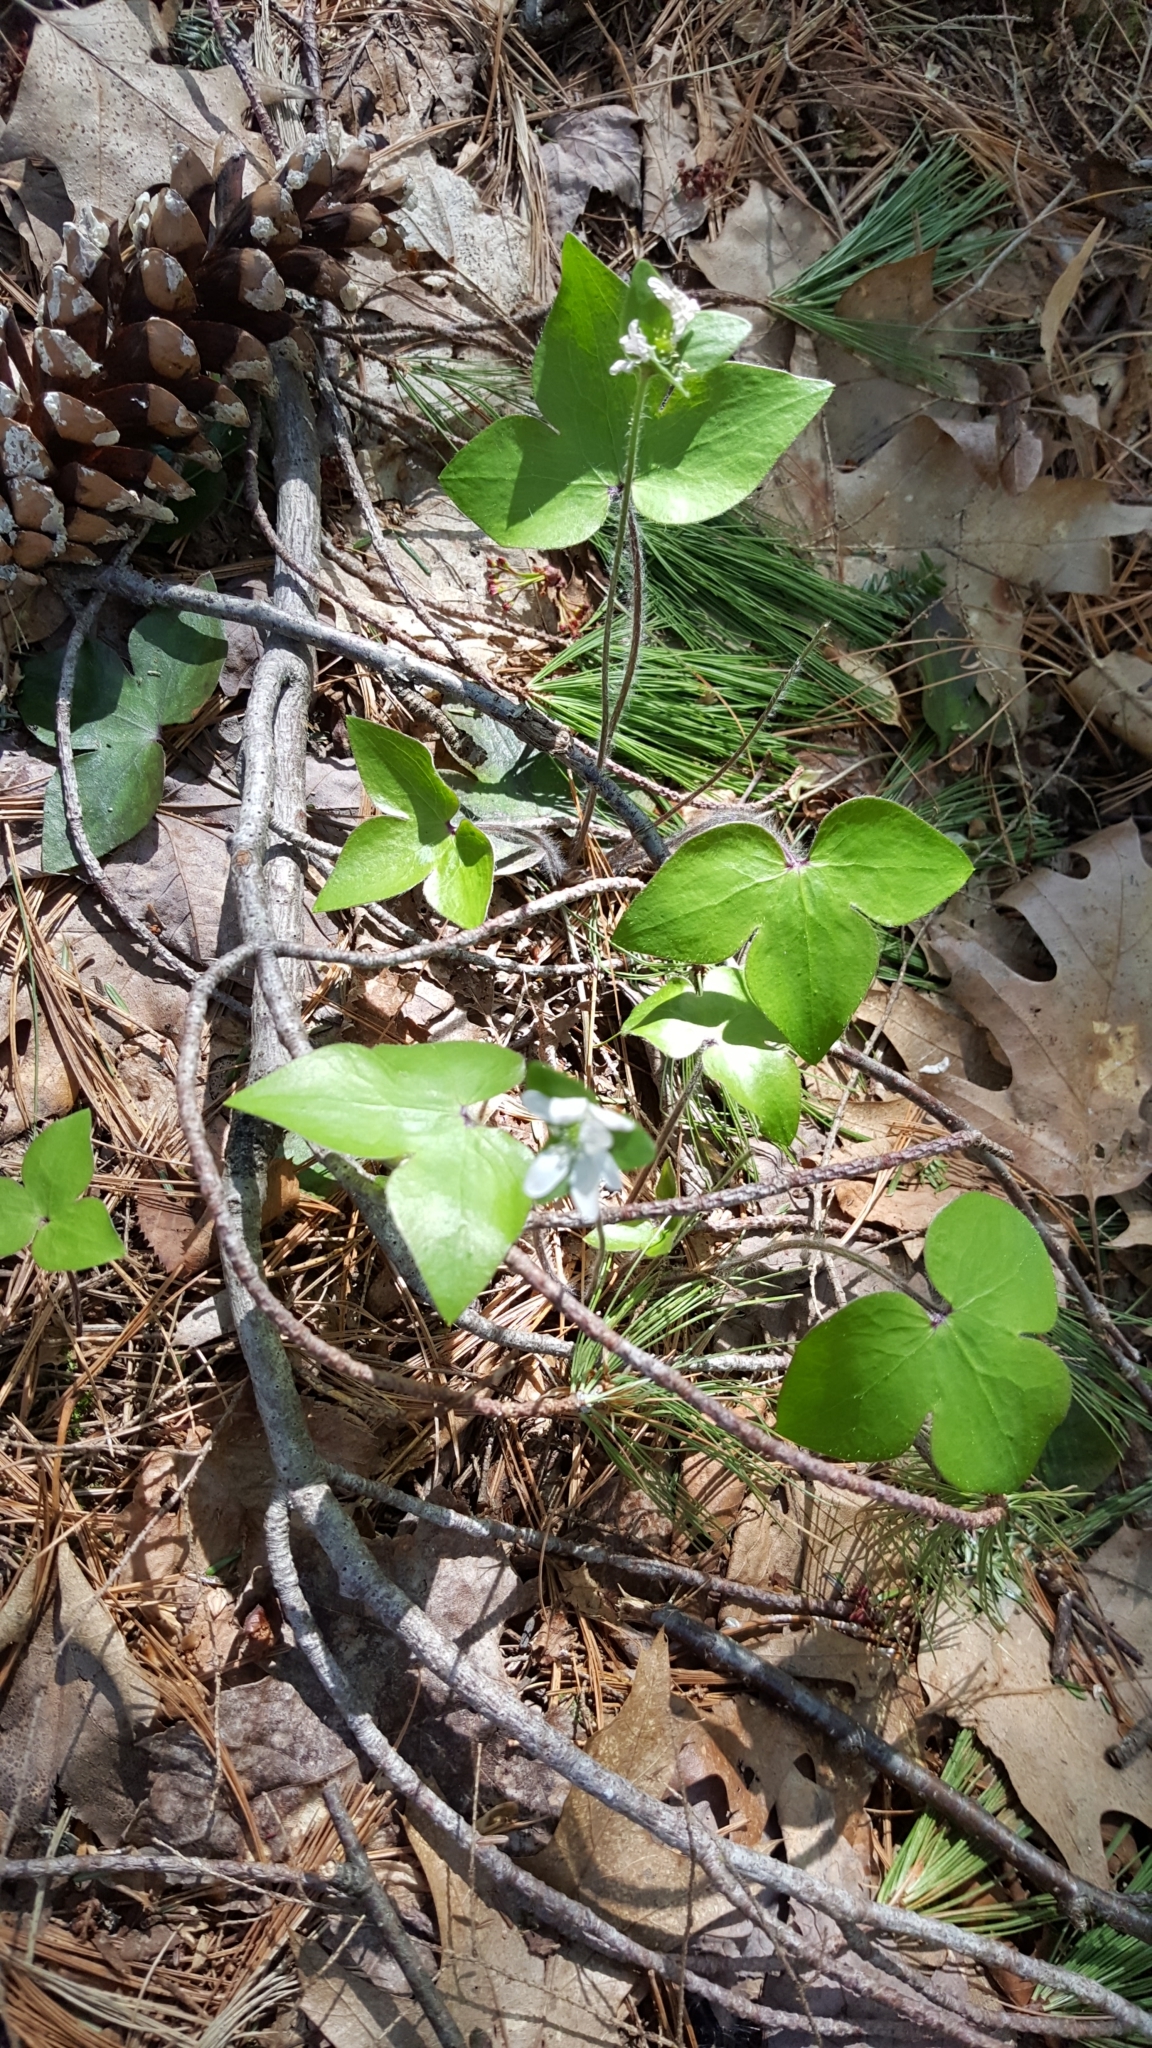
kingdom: Plantae
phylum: Tracheophyta
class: Magnoliopsida
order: Ranunculales
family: Ranunculaceae
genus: Hepatica
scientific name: Hepatica acutiloba
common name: Sharp-lobed hepatica
